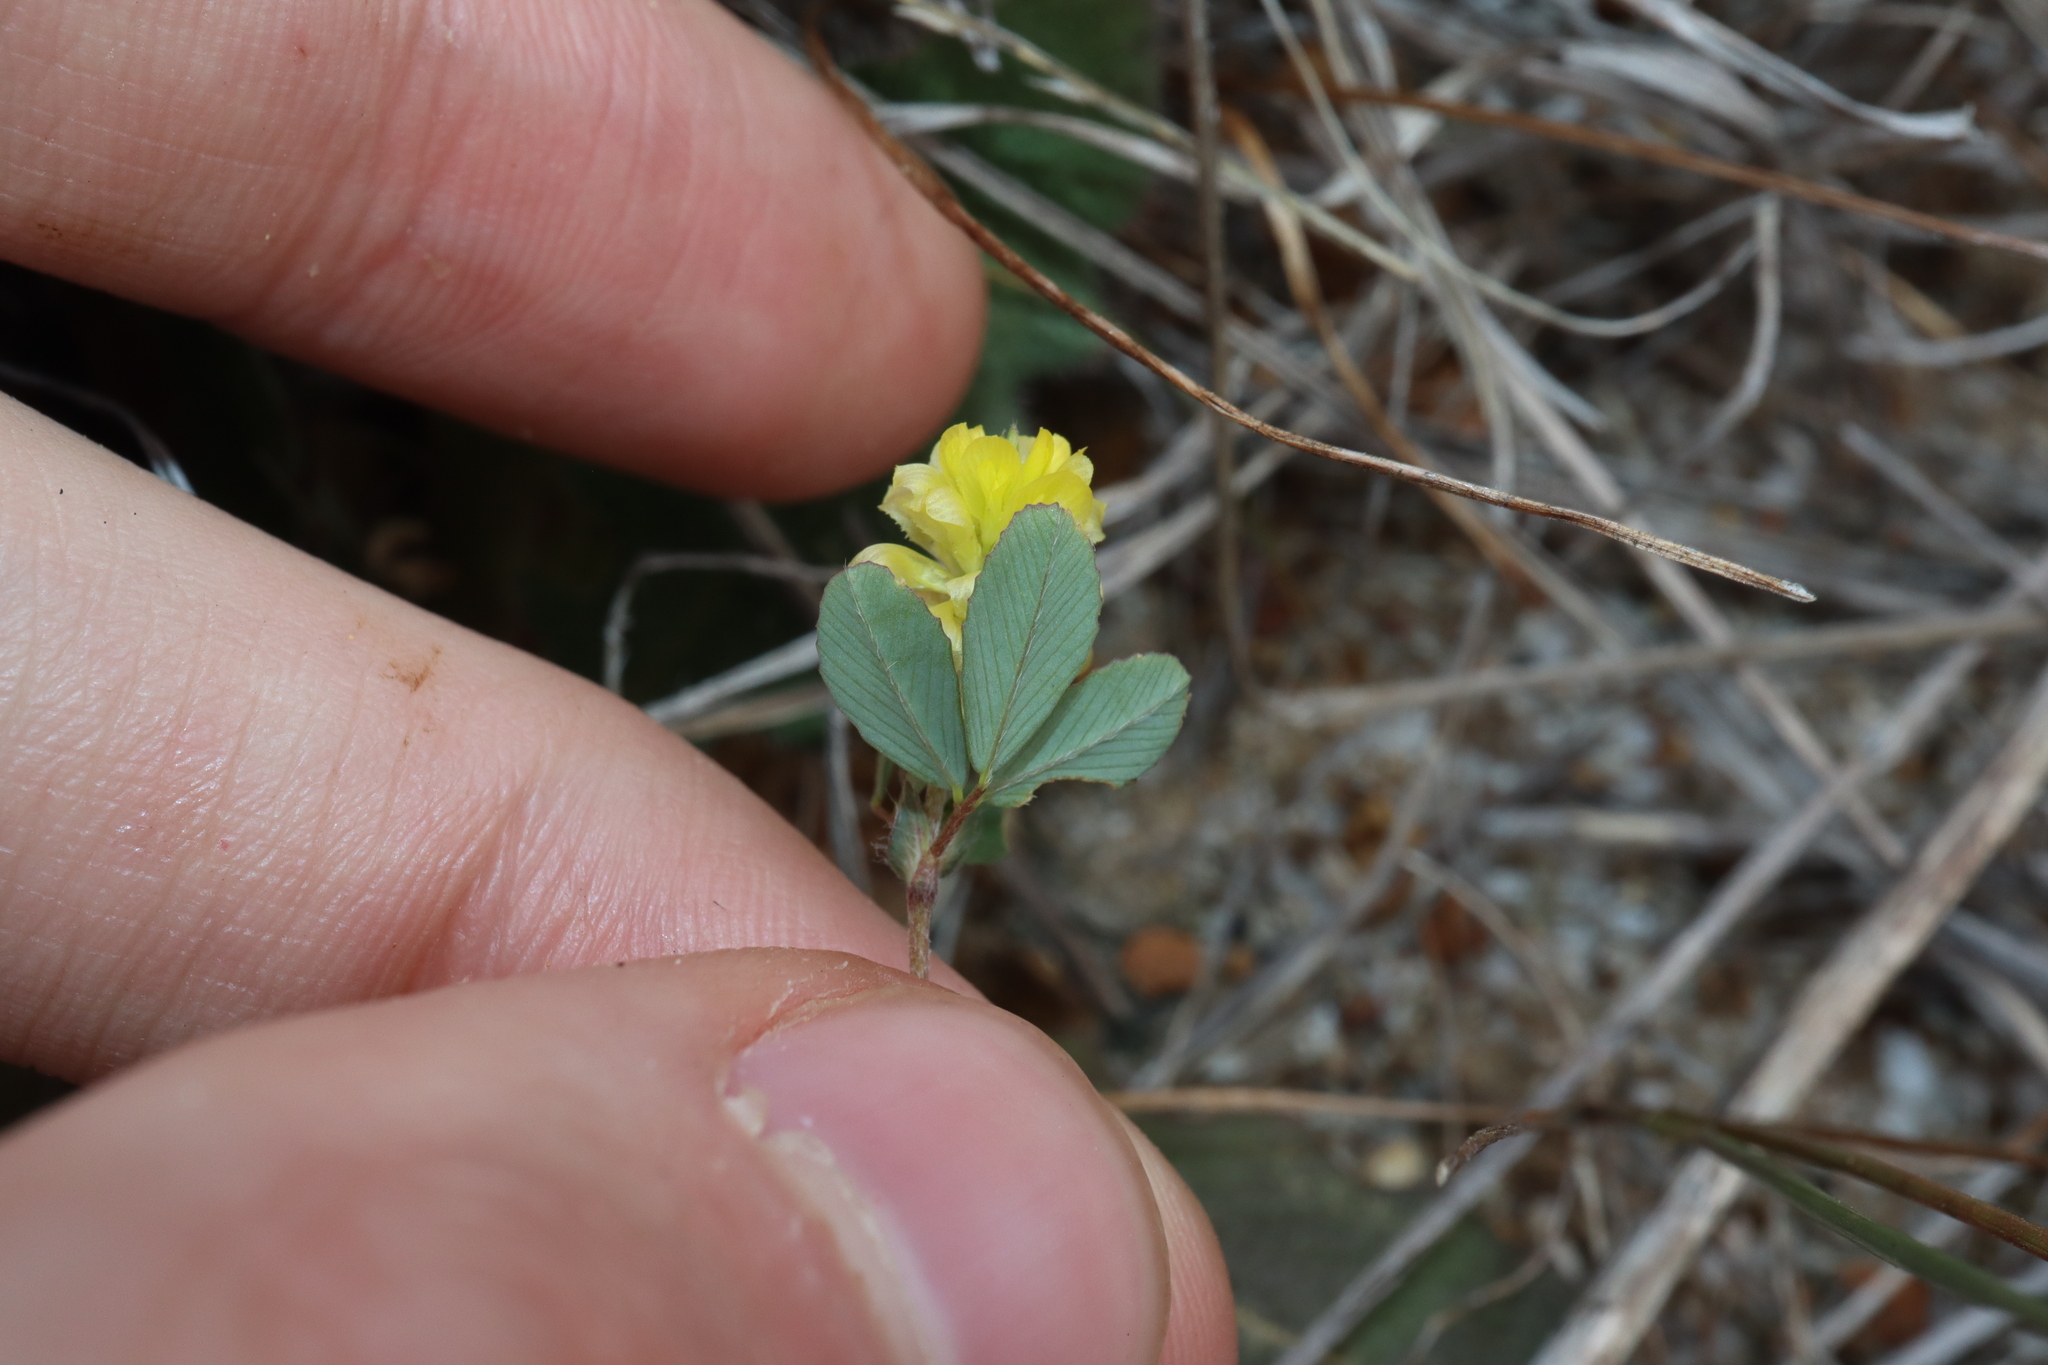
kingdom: Plantae
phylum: Tracheophyta
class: Magnoliopsida
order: Fabales
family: Fabaceae
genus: Trifolium
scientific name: Trifolium campestre
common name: Field clover
